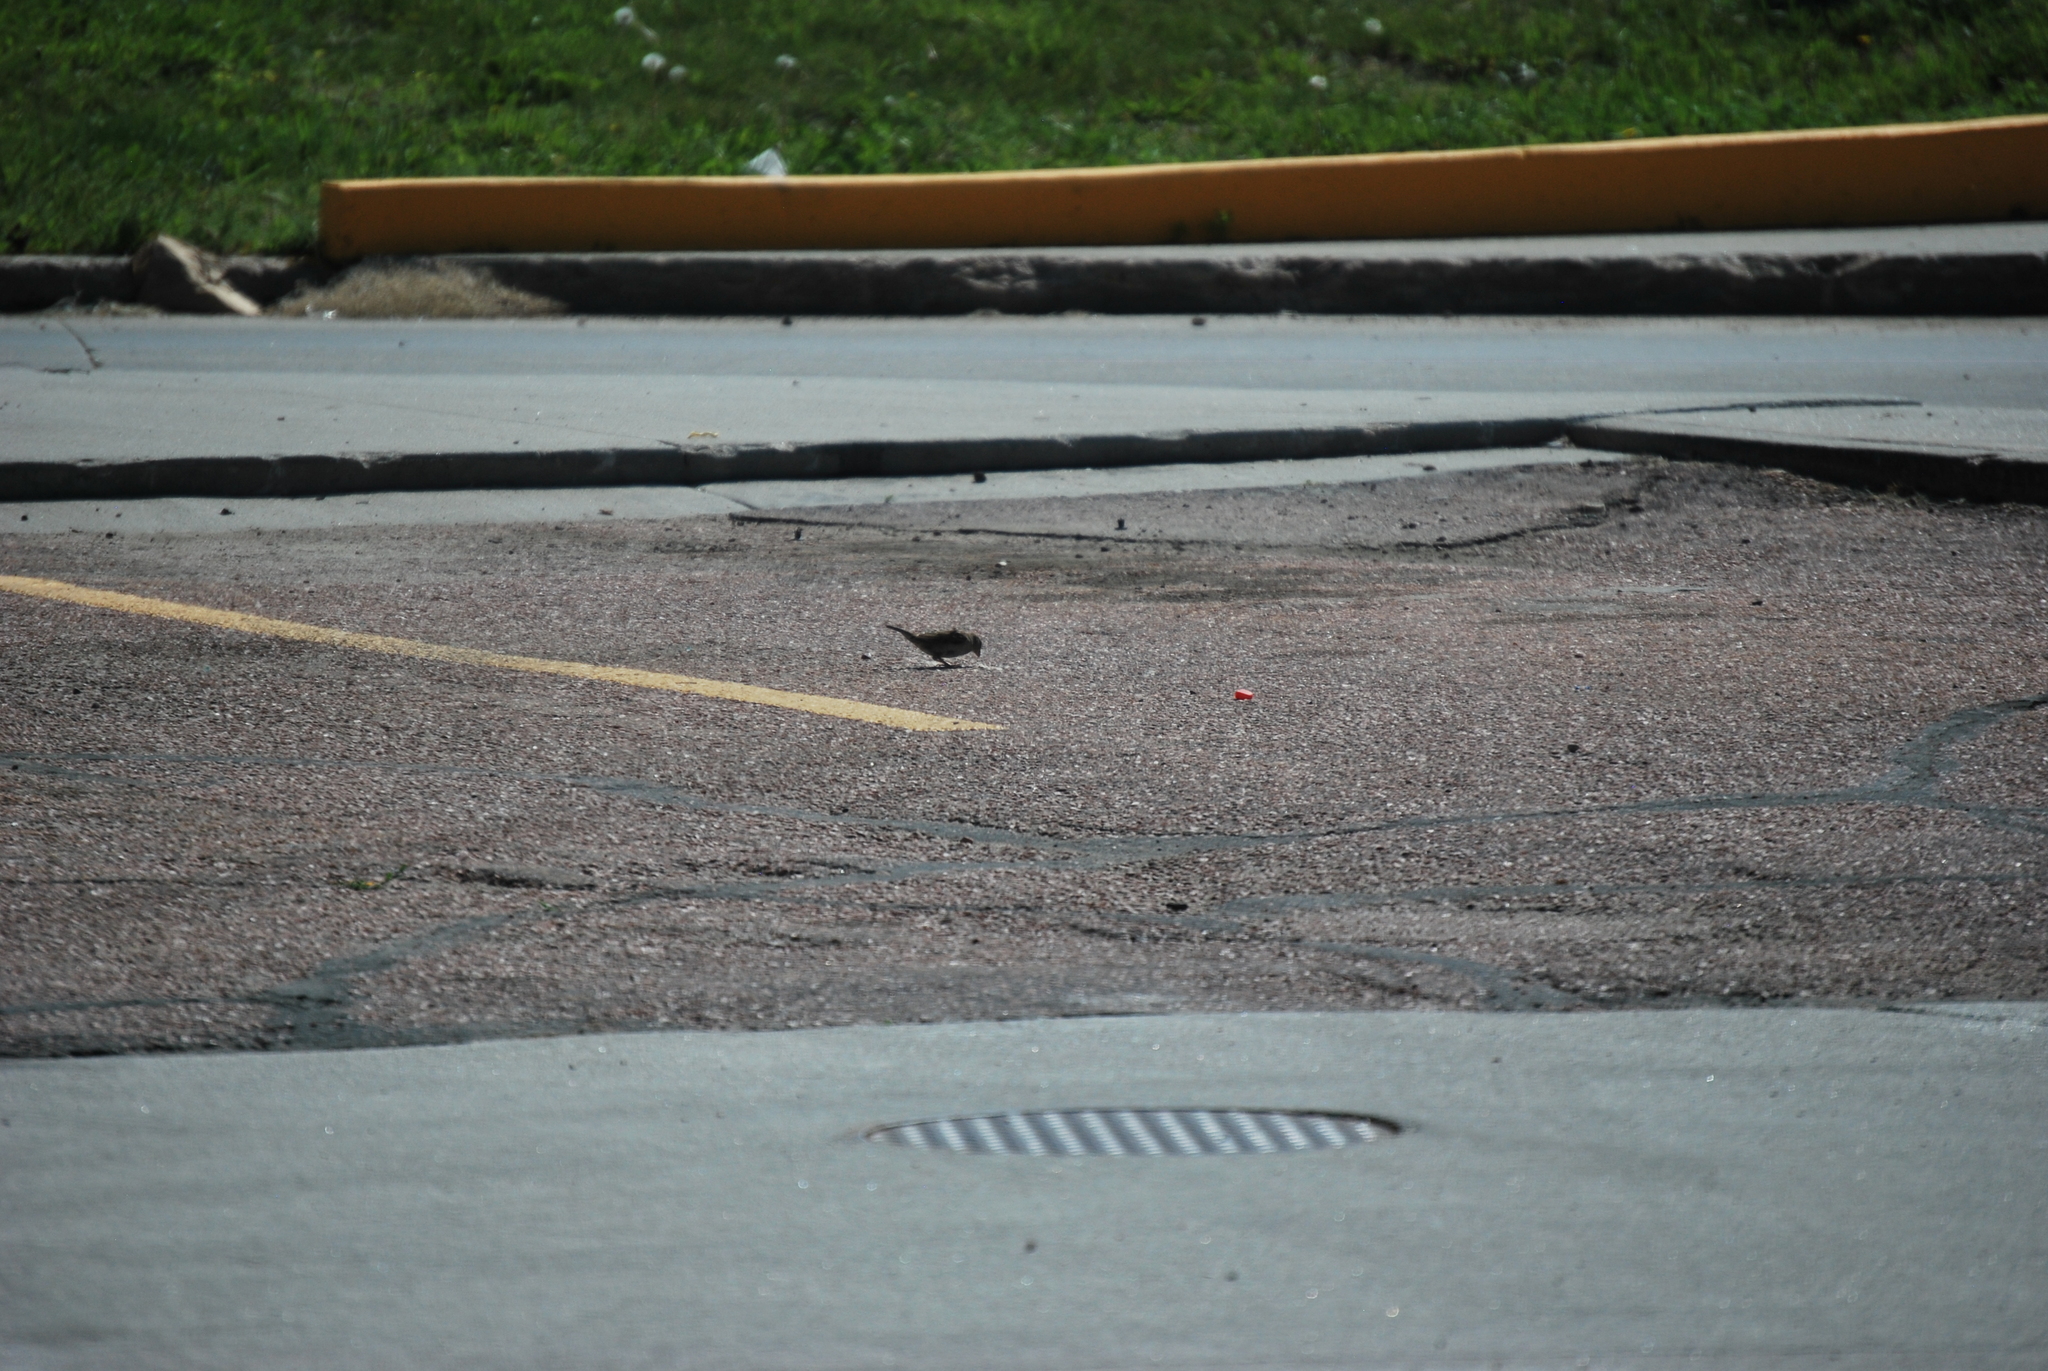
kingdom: Animalia
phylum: Chordata
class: Aves
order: Passeriformes
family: Passeridae
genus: Passer
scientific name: Passer domesticus
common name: House sparrow
